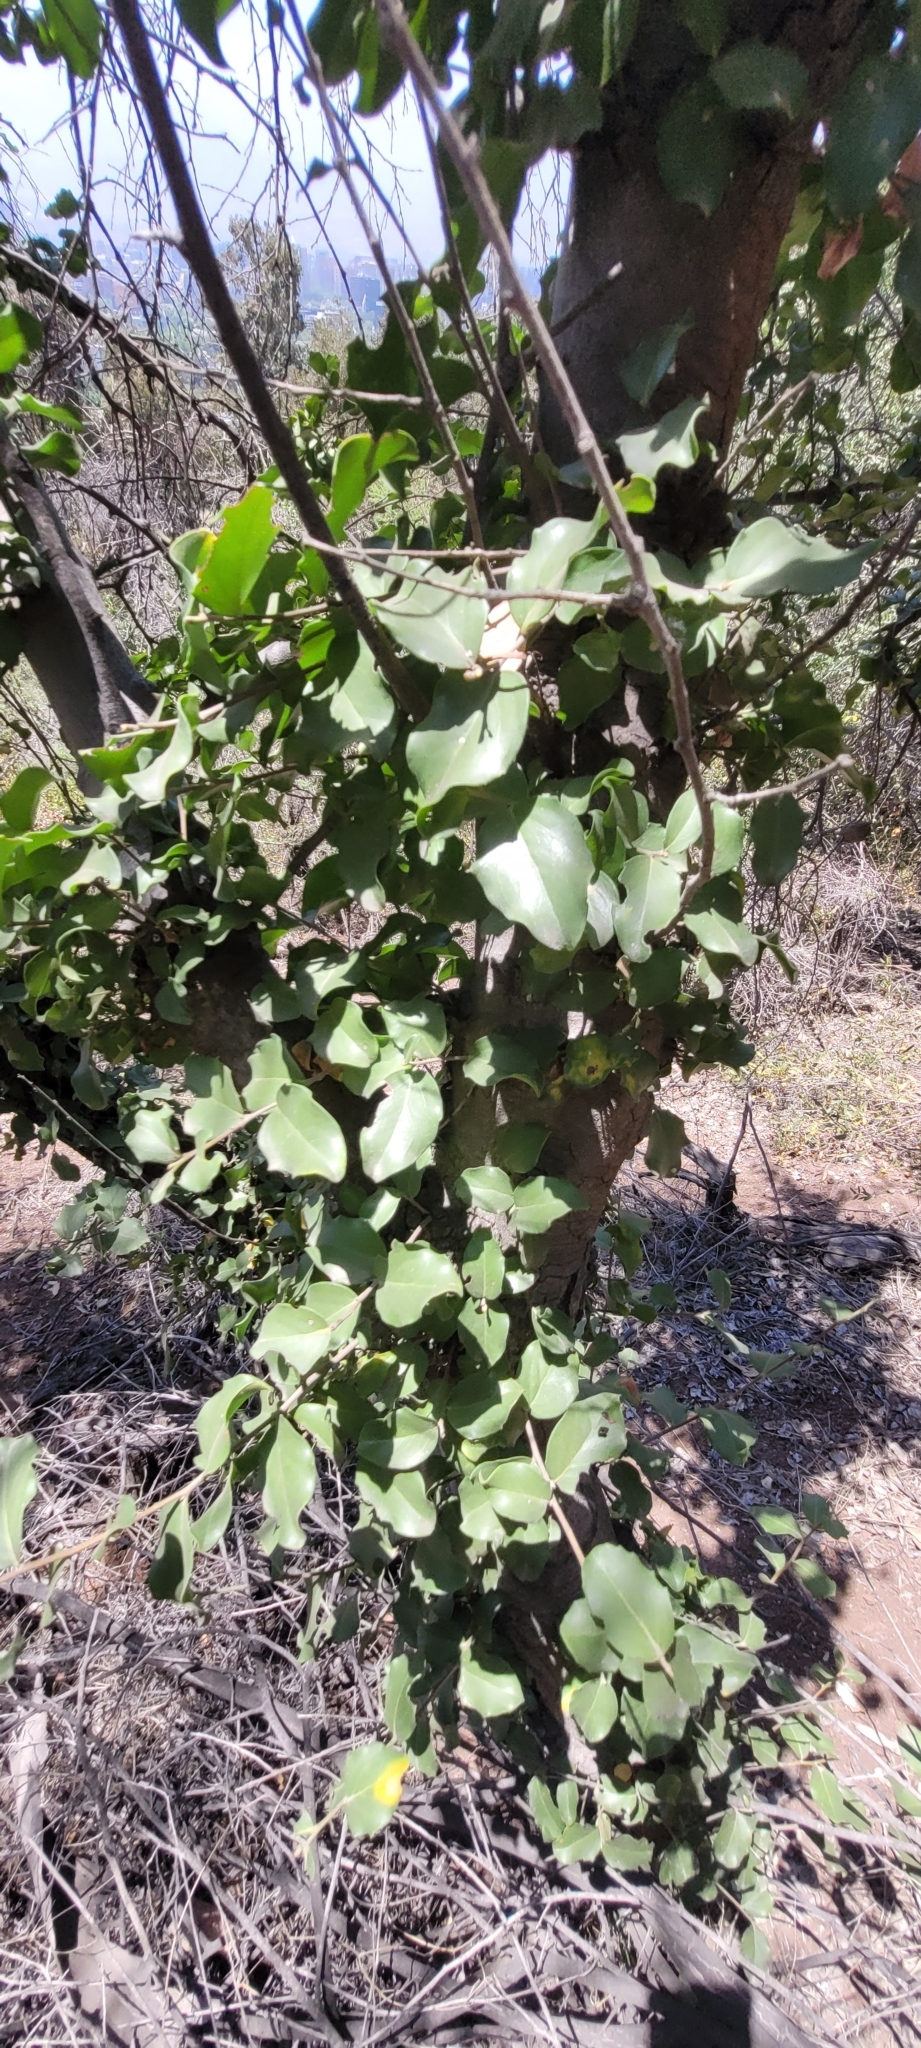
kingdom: Plantae
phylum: Tracheophyta
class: Magnoliopsida
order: Laurales
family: Lauraceae
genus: Cryptocarya
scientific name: Cryptocarya alba
